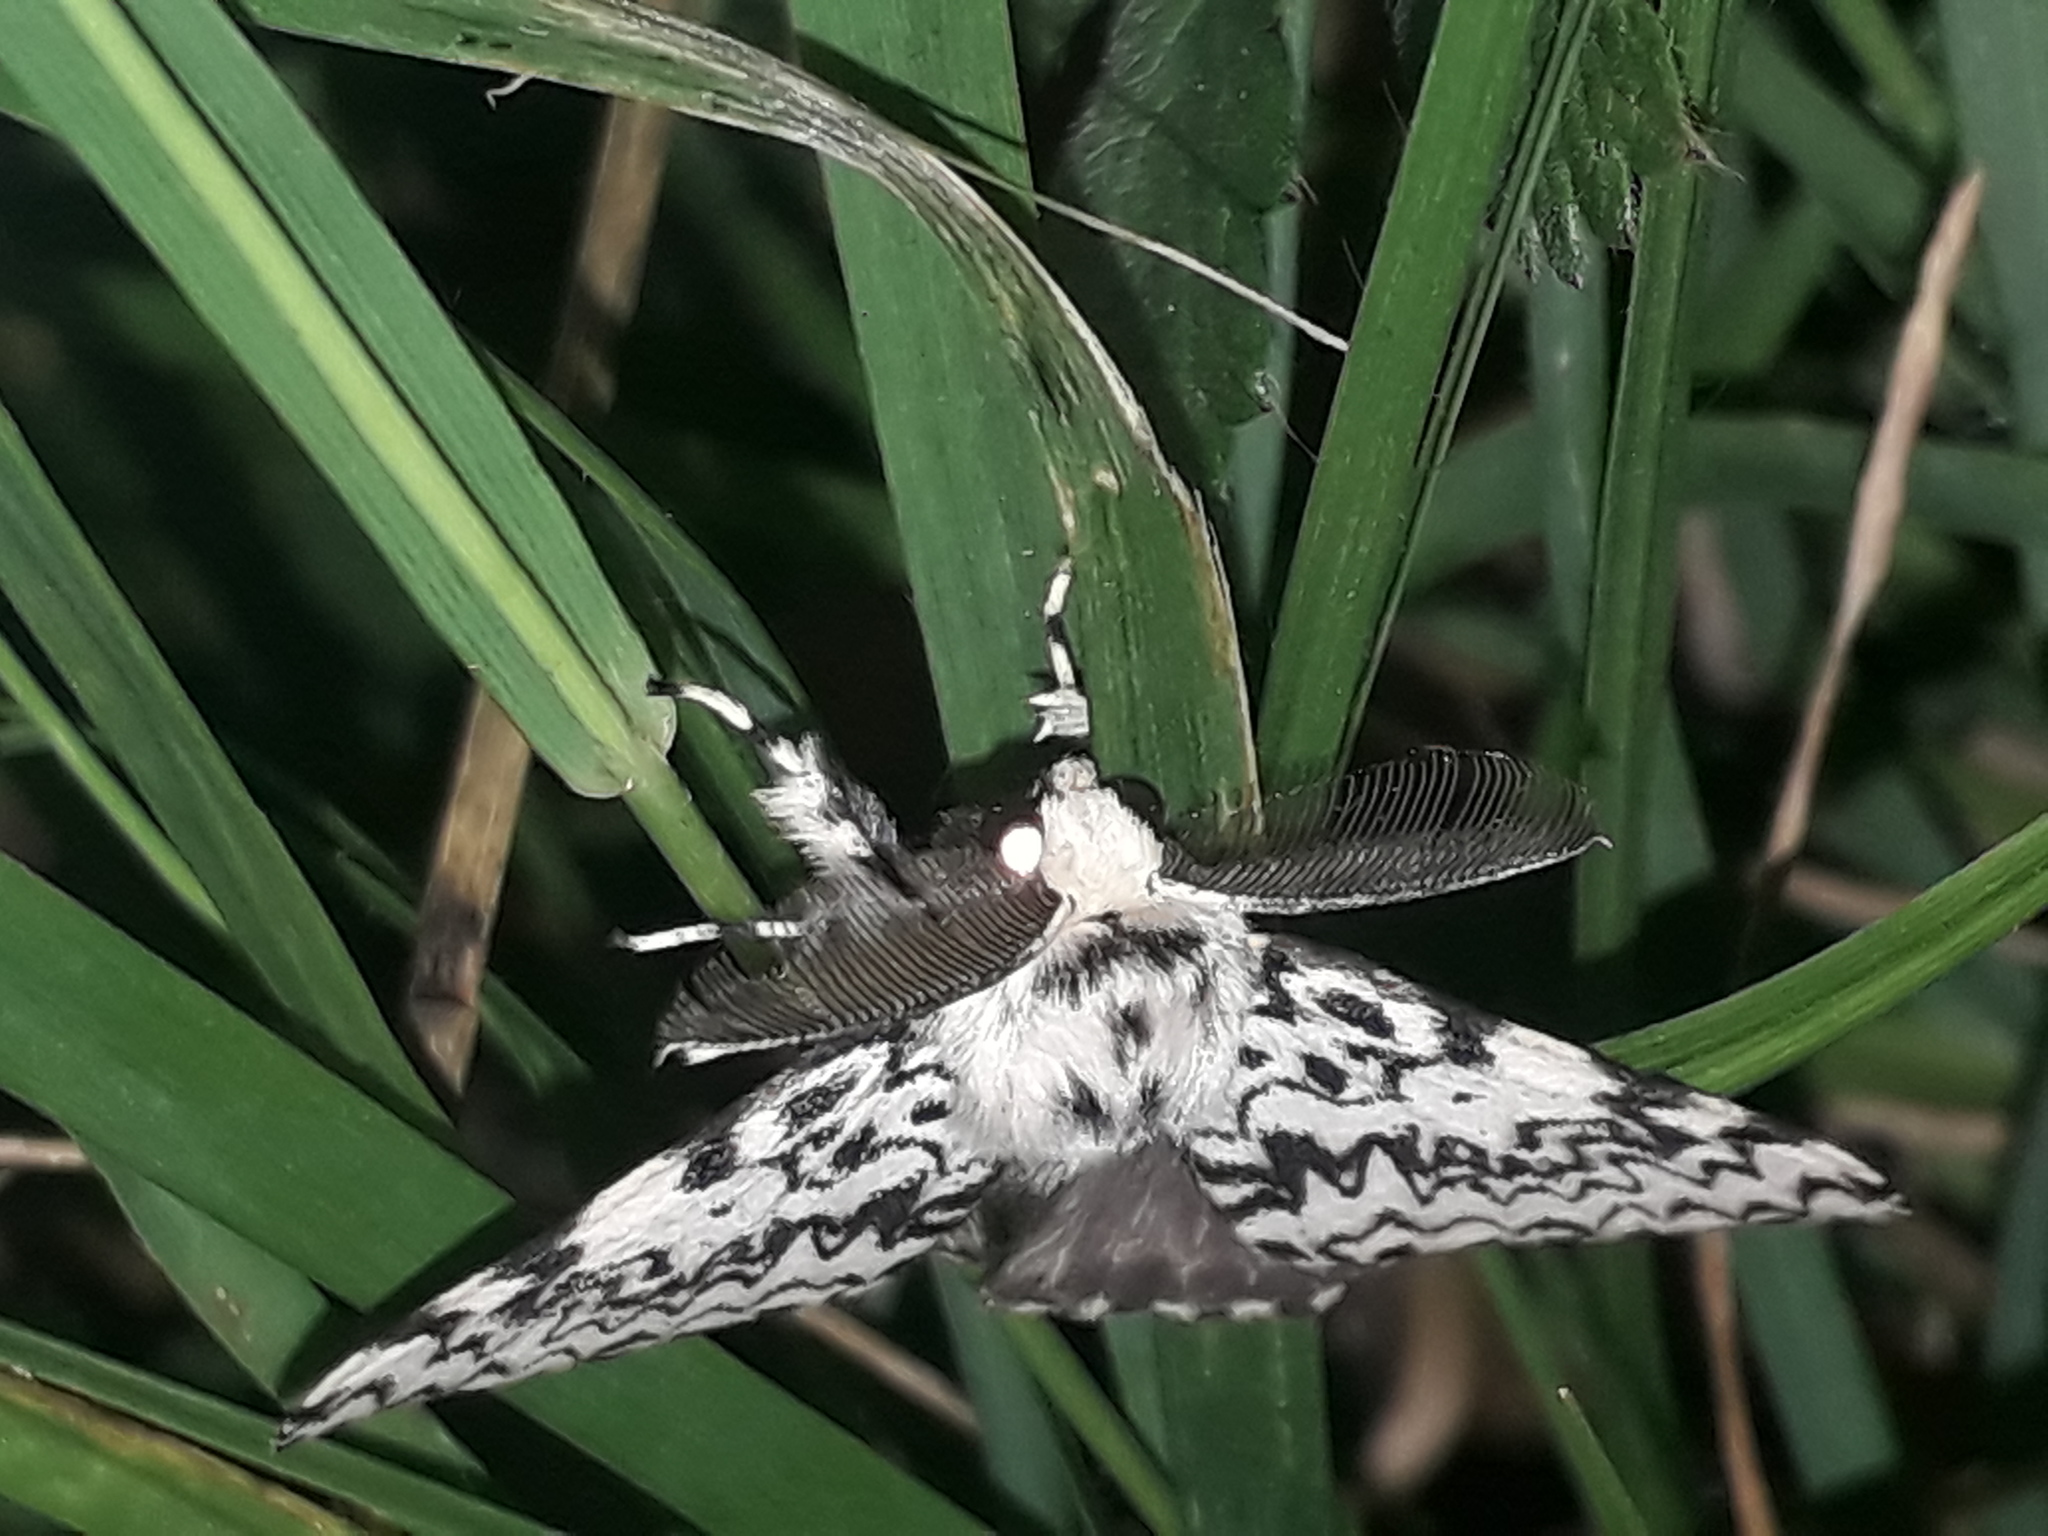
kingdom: Animalia
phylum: Arthropoda
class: Insecta
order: Lepidoptera
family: Erebidae
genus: Lymantria
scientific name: Lymantria monacha
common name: Black arches
